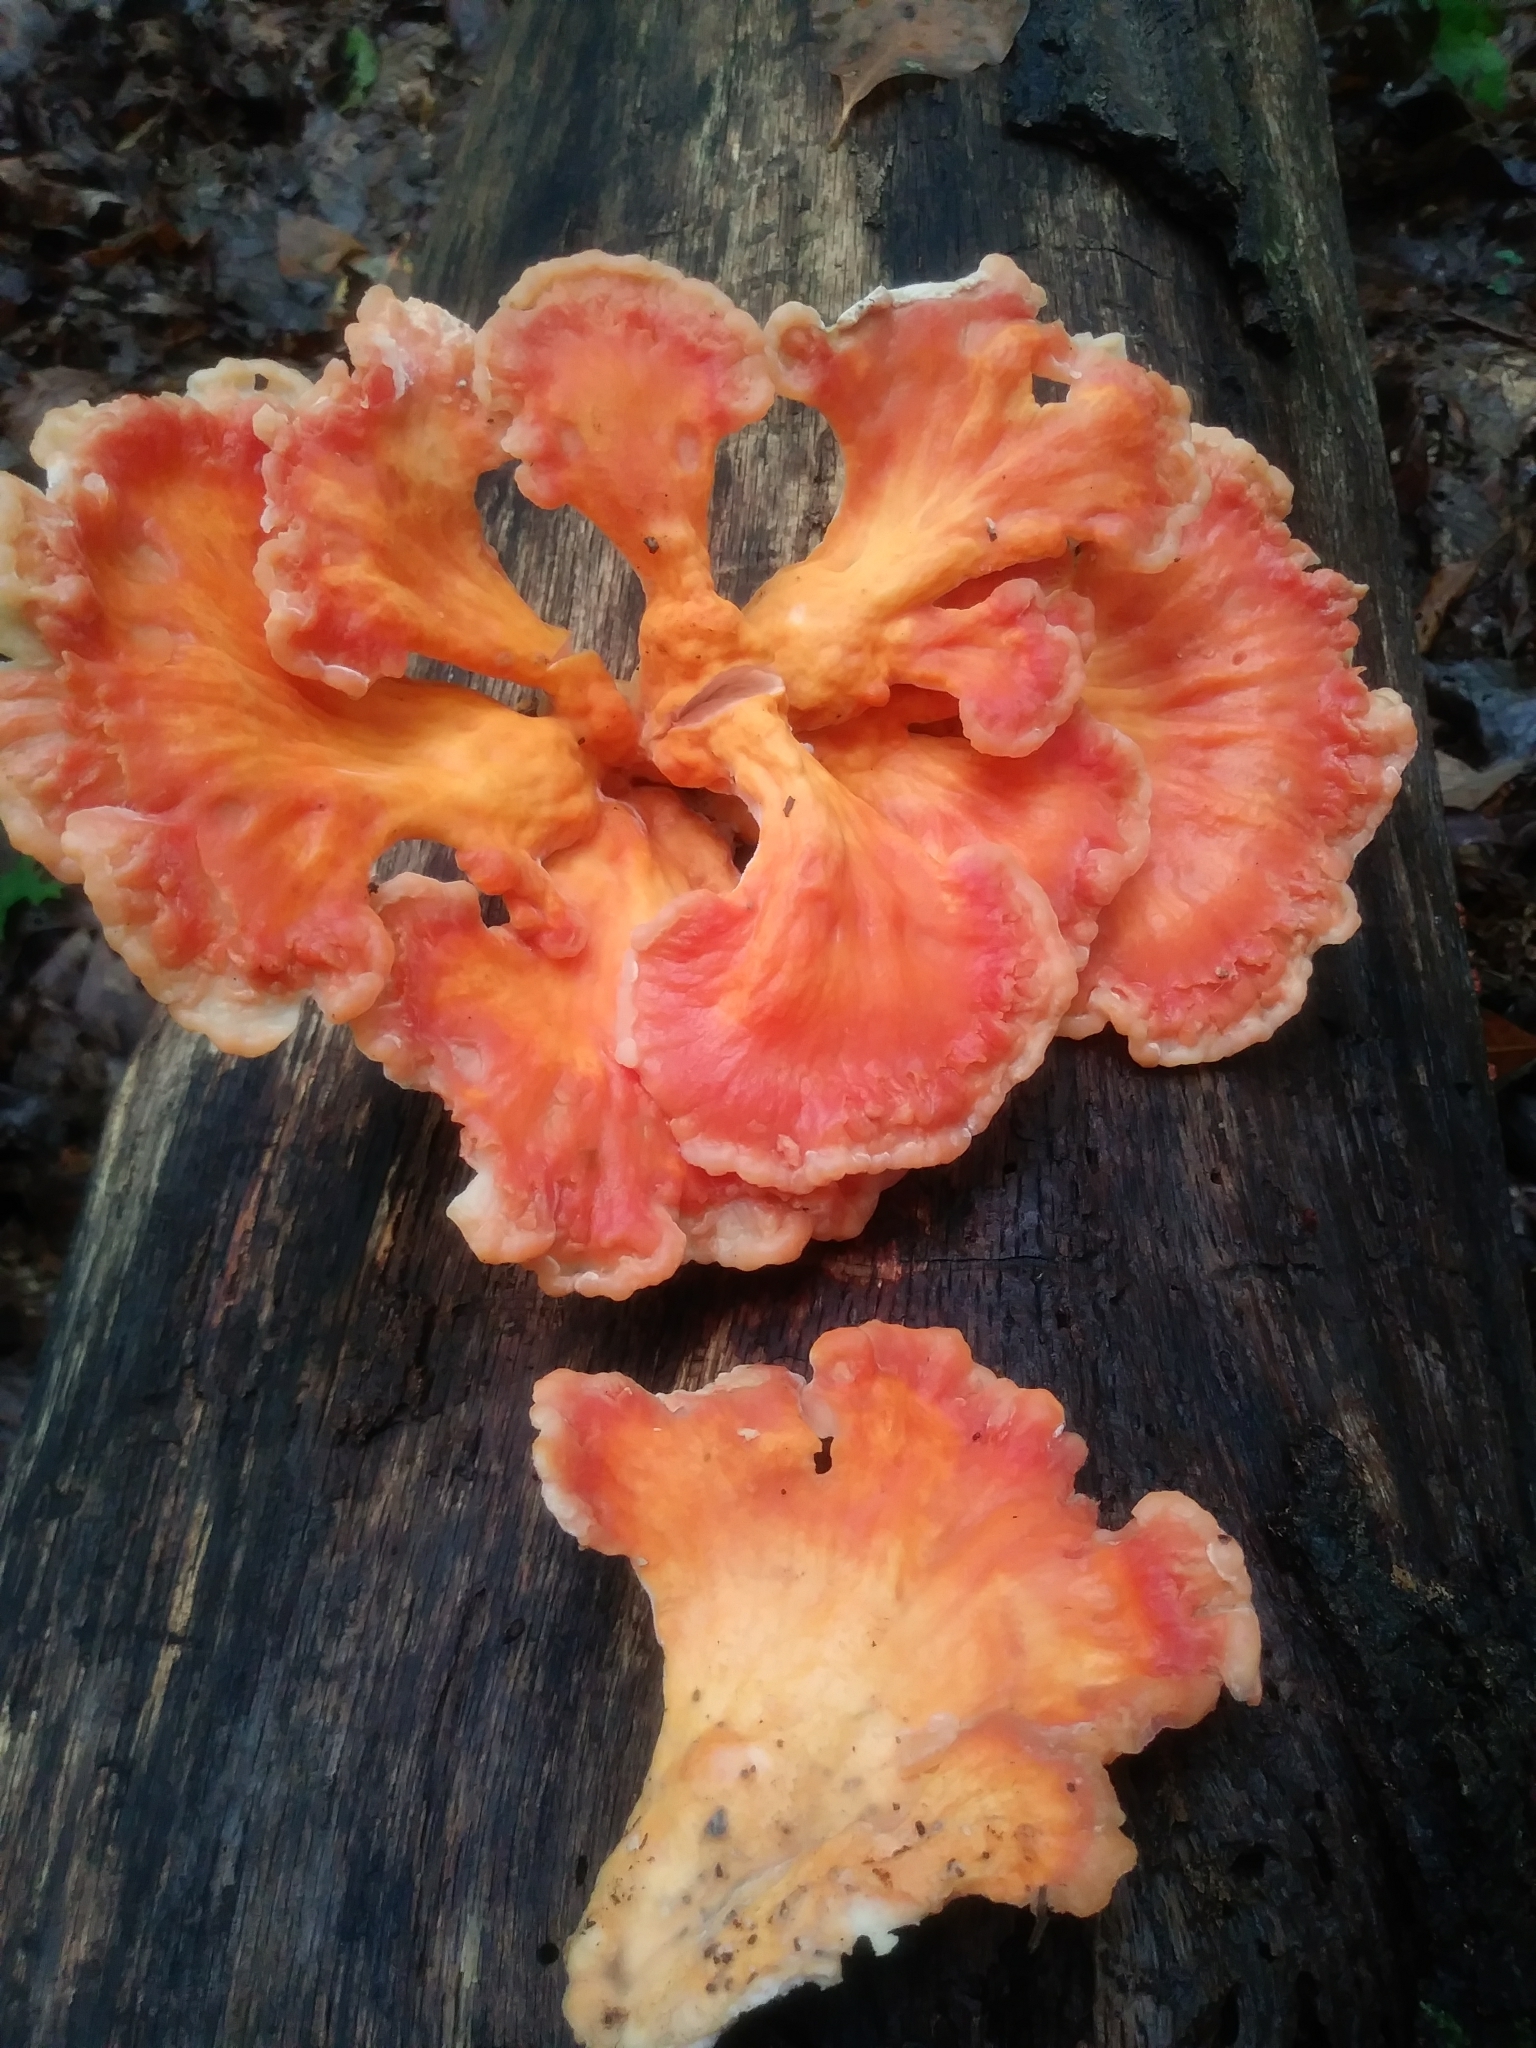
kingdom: Fungi
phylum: Basidiomycota
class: Agaricomycetes
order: Polyporales
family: Laetiporaceae
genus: Laetiporus
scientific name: Laetiporus sulphureus
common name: Chicken of the woods
